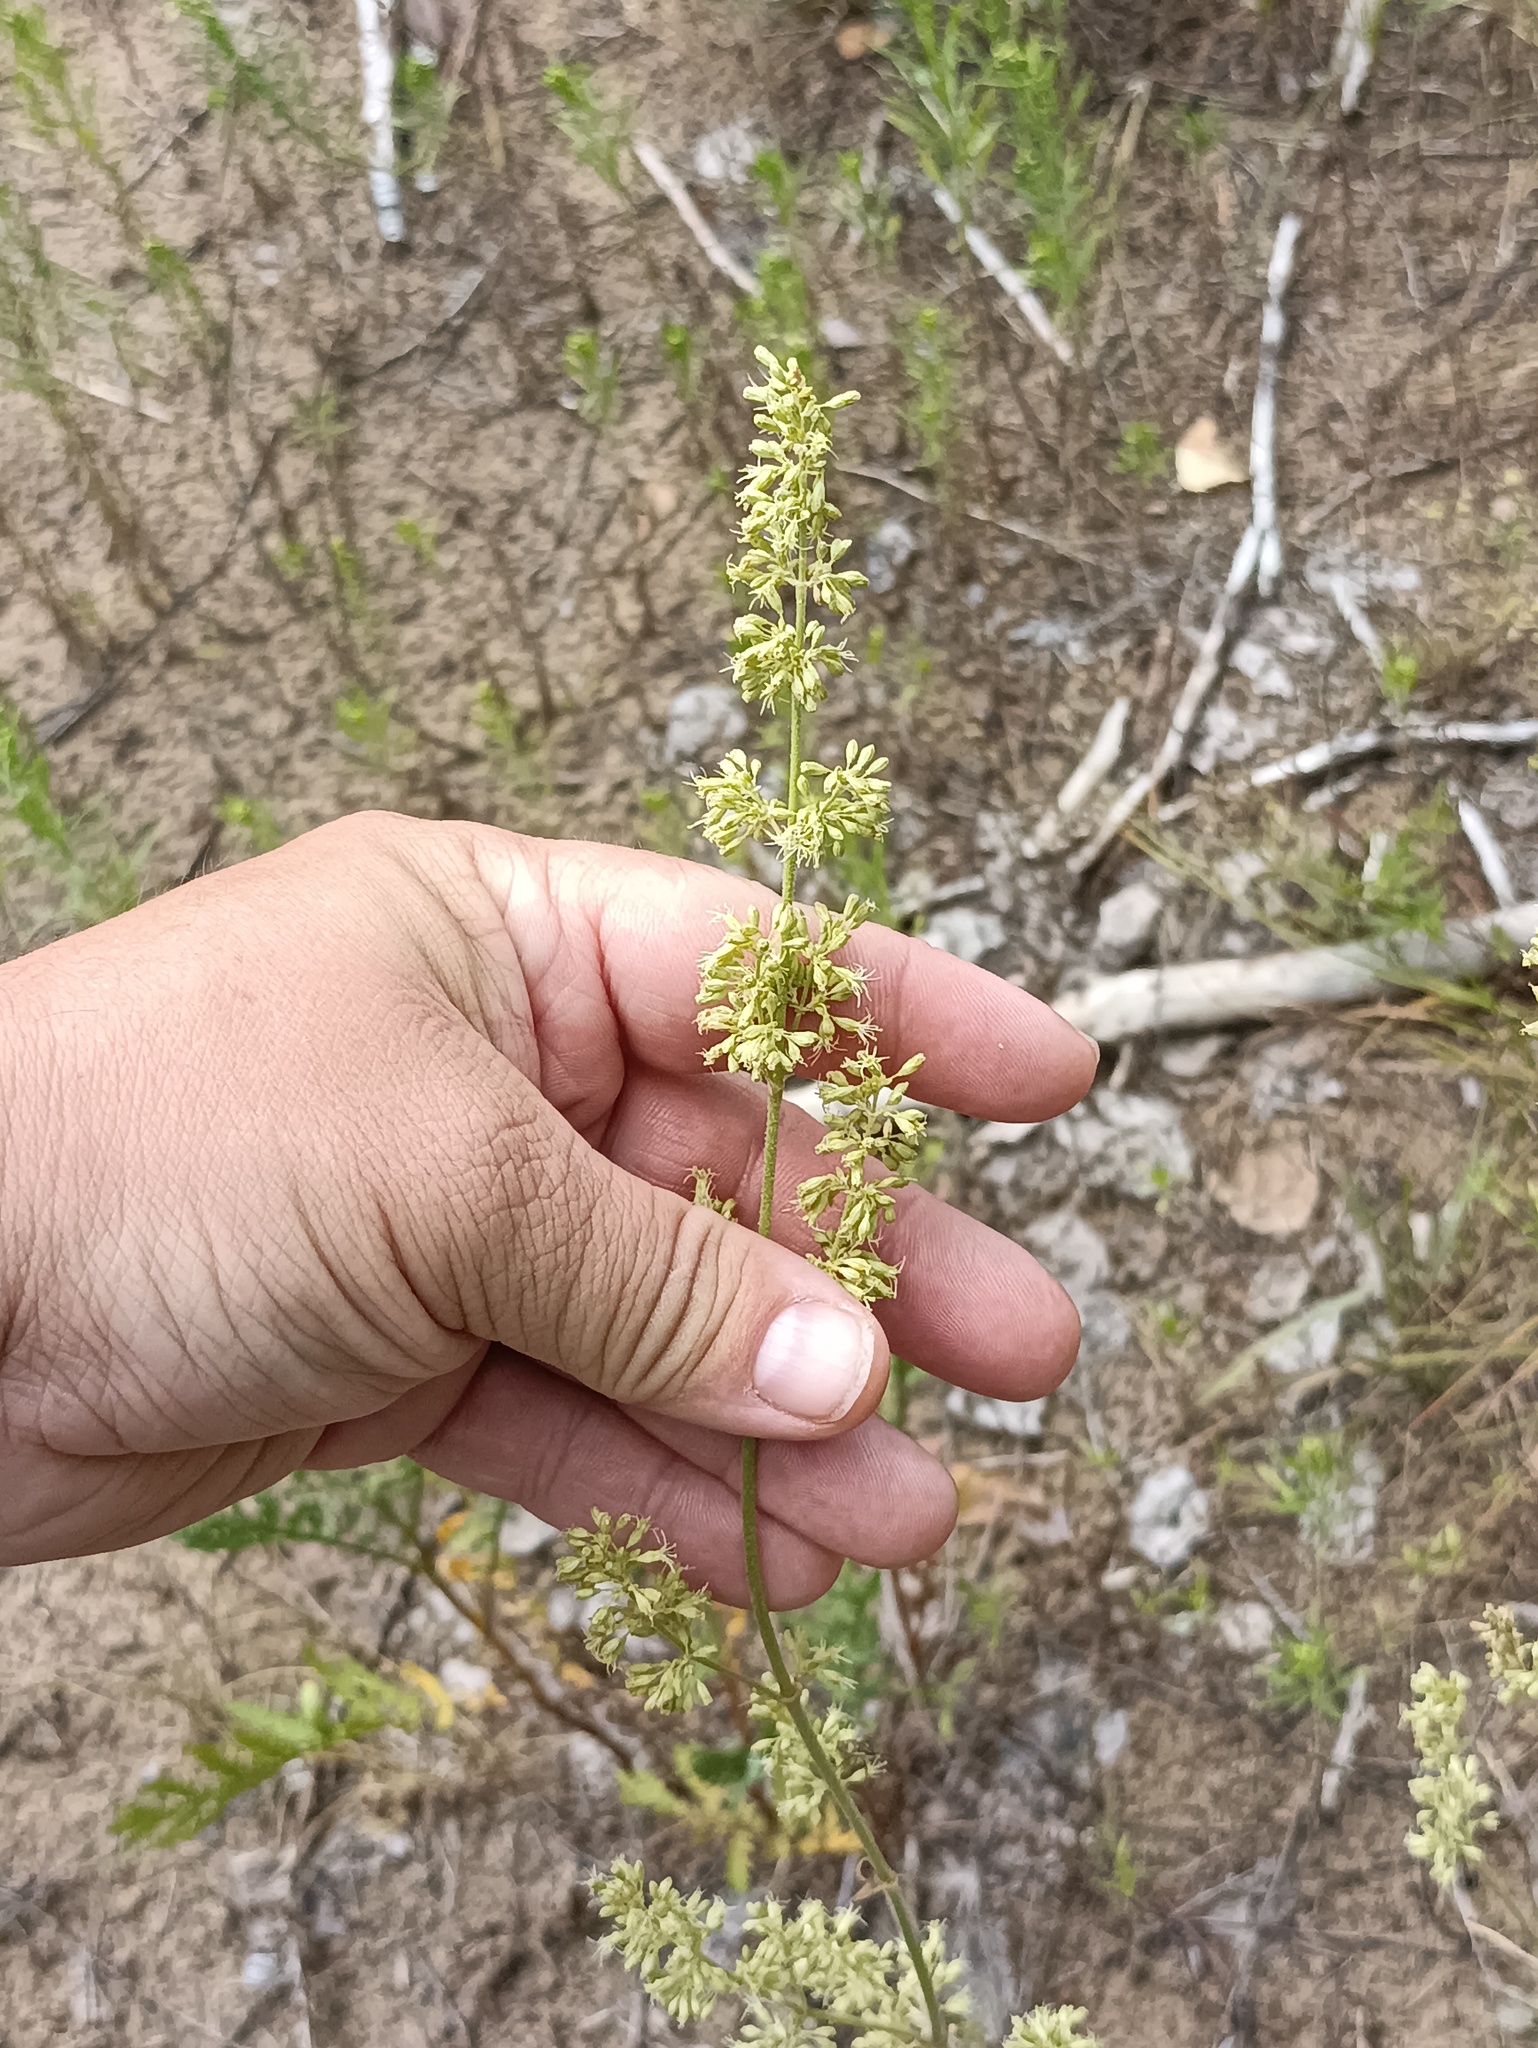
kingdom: Plantae
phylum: Tracheophyta
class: Magnoliopsida
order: Caryophyllales
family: Caryophyllaceae
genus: Silene
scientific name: Silene borysthenica
